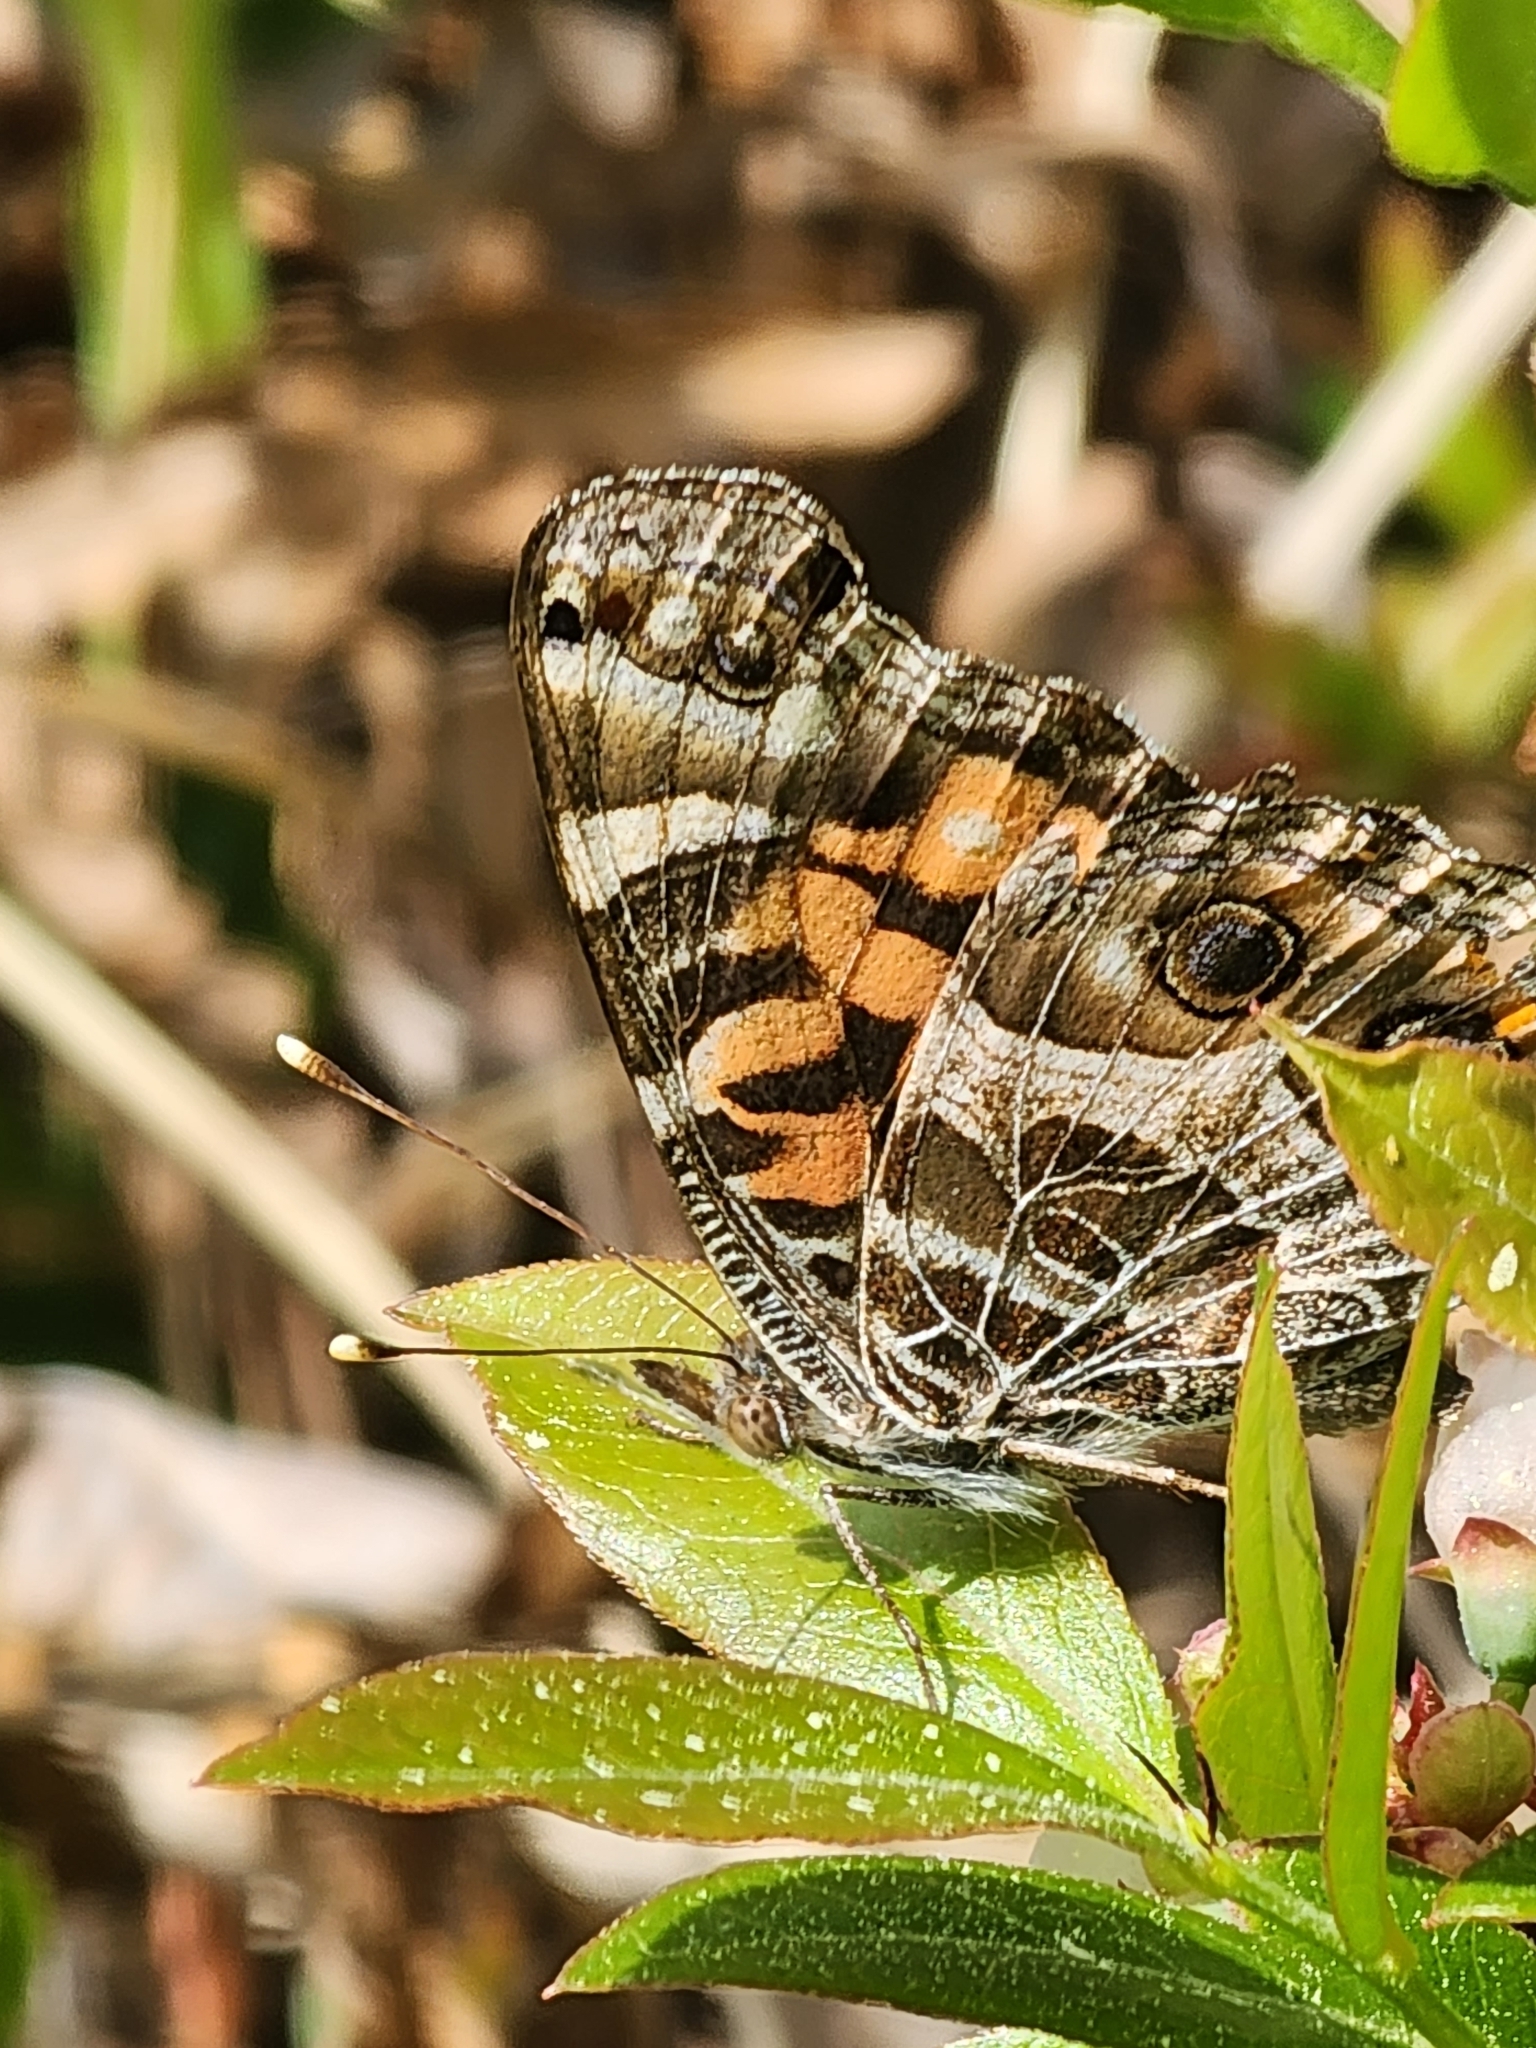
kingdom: Animalia
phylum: Arthropoda
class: Insecta
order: Lepidoptera
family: Nymphalidae
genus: Vanessa
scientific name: Vanessa virginiensis
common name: American lady
